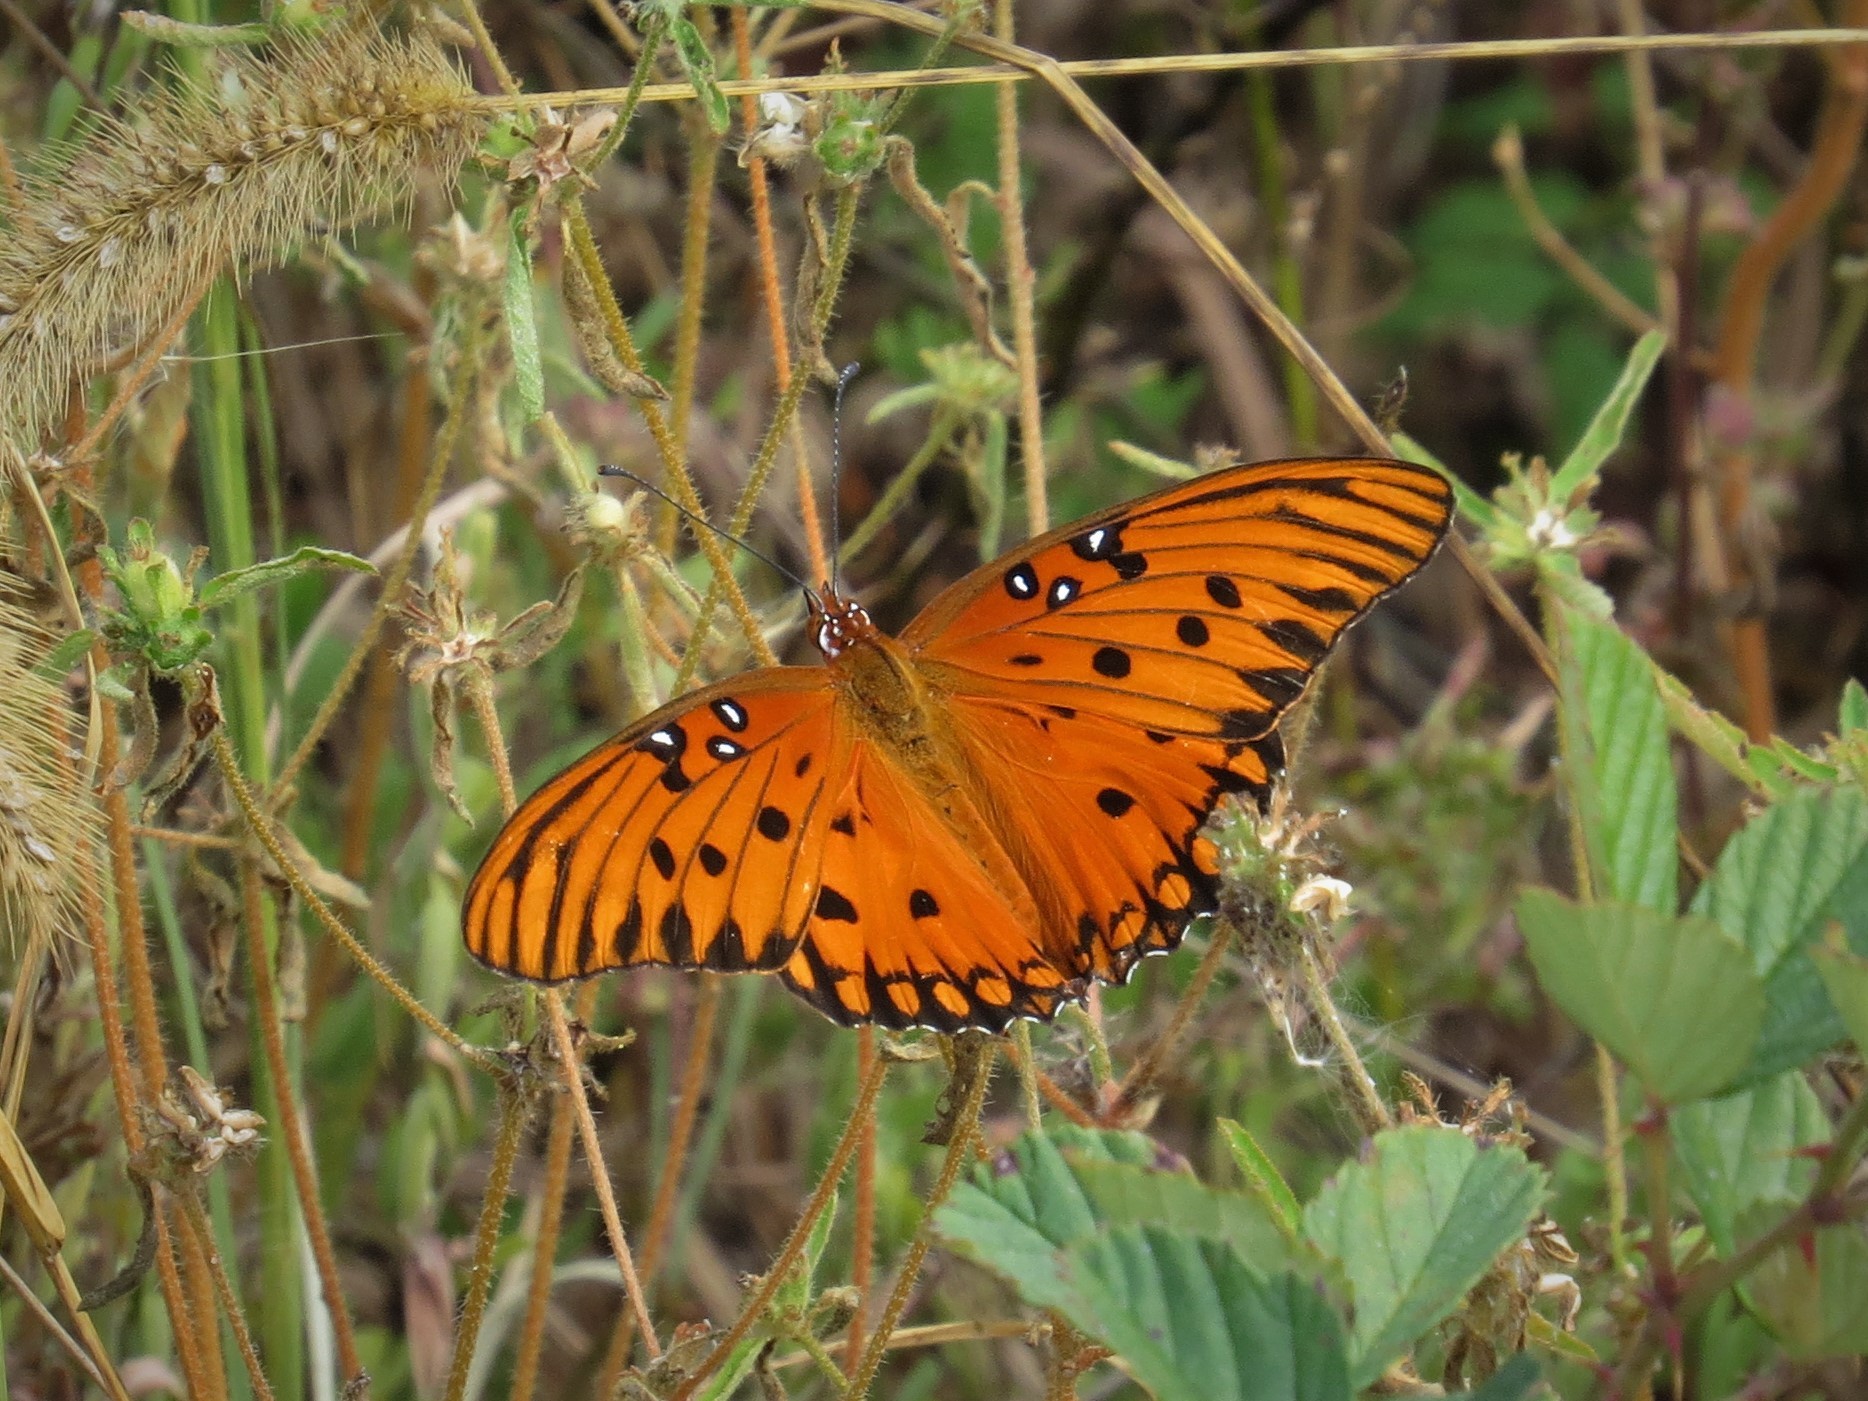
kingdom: Animalia
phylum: Arthropoda
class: Insecta
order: Lepidoptera
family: Nymphalidae
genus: Dione
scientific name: Dione vanillae
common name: Gulf fritillary
